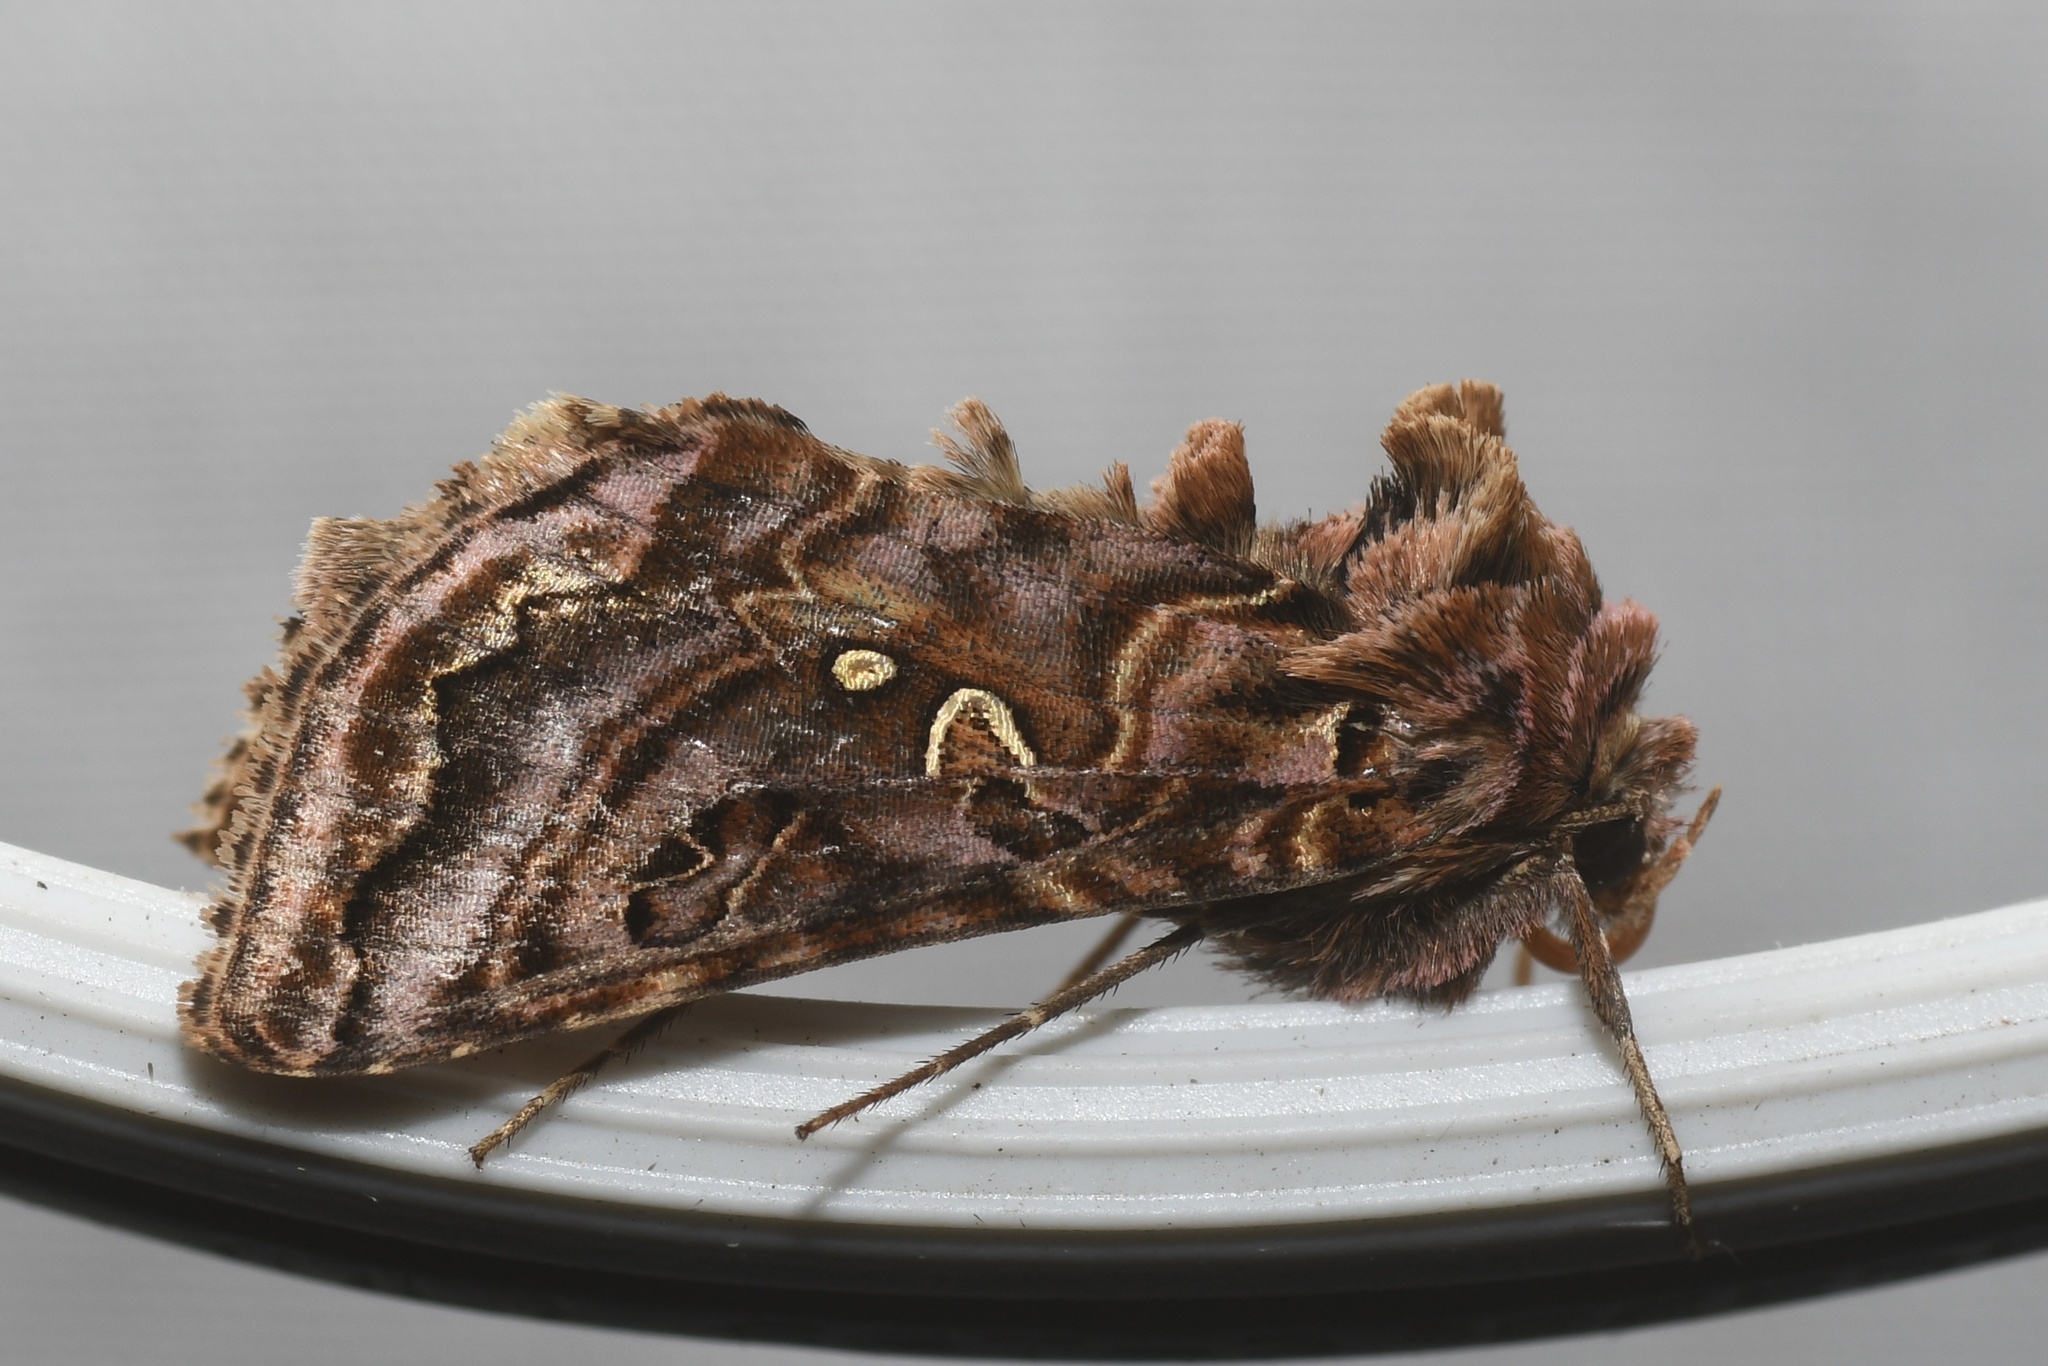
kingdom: Animalia
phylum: Arthropoda
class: Insecta
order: Lepidoptera
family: Noctuidae
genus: Autographa
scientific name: Autographa mappa
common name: Wavy chestnut y moth
